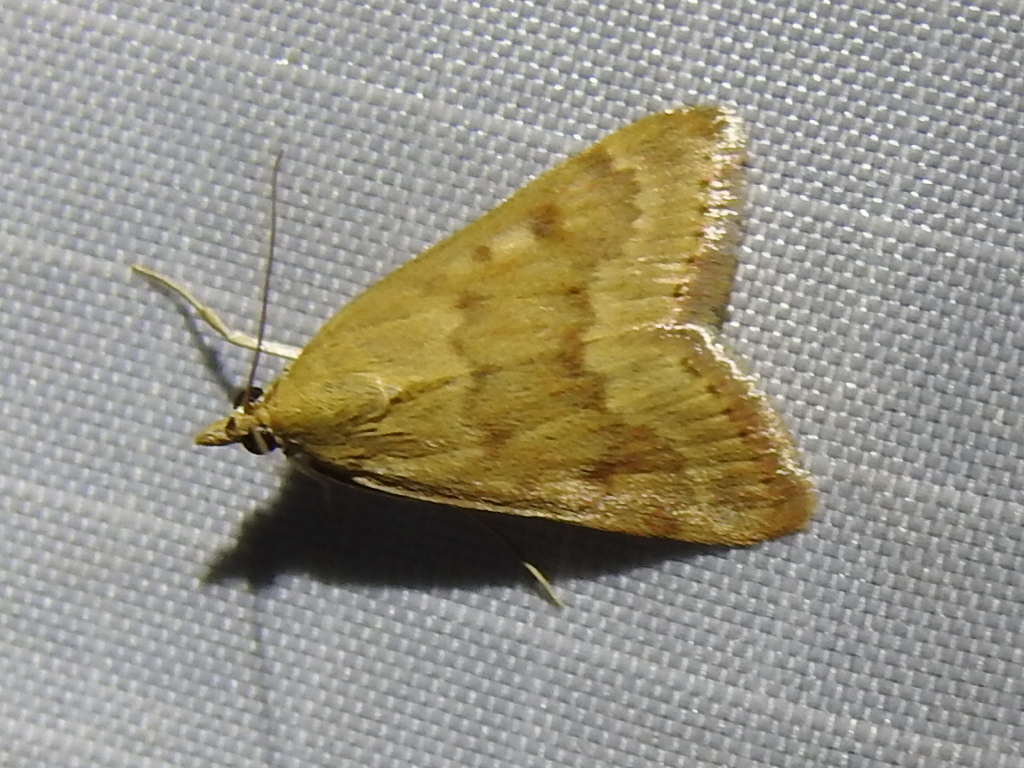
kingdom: Animalia
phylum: Arthropoda
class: Insecta
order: Lepidoptera
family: Crambidae
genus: Achyra
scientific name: Achyra rantalis
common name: Garden webworm
